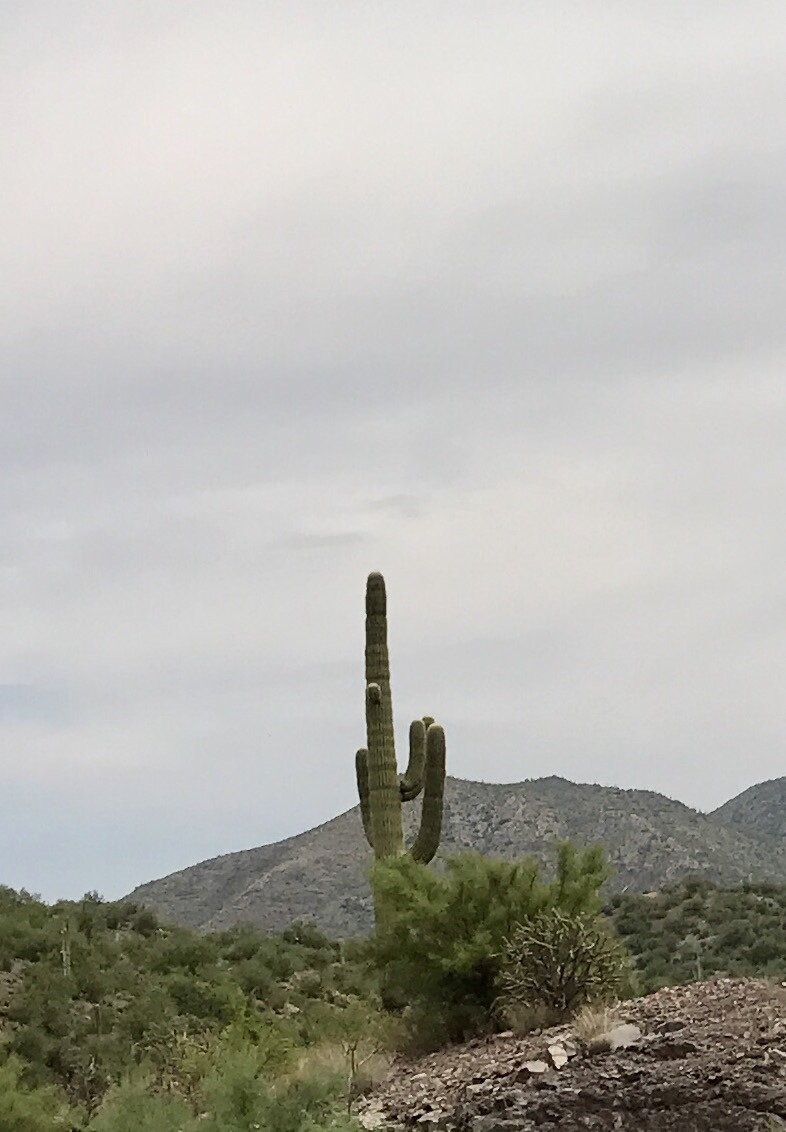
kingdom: Plantae
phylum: Tracheophyta
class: Magnoliopsida
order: Caryophyllales
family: Cactaceae
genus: Carnegiea
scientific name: Carnegiea gigantea
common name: Saguaro
